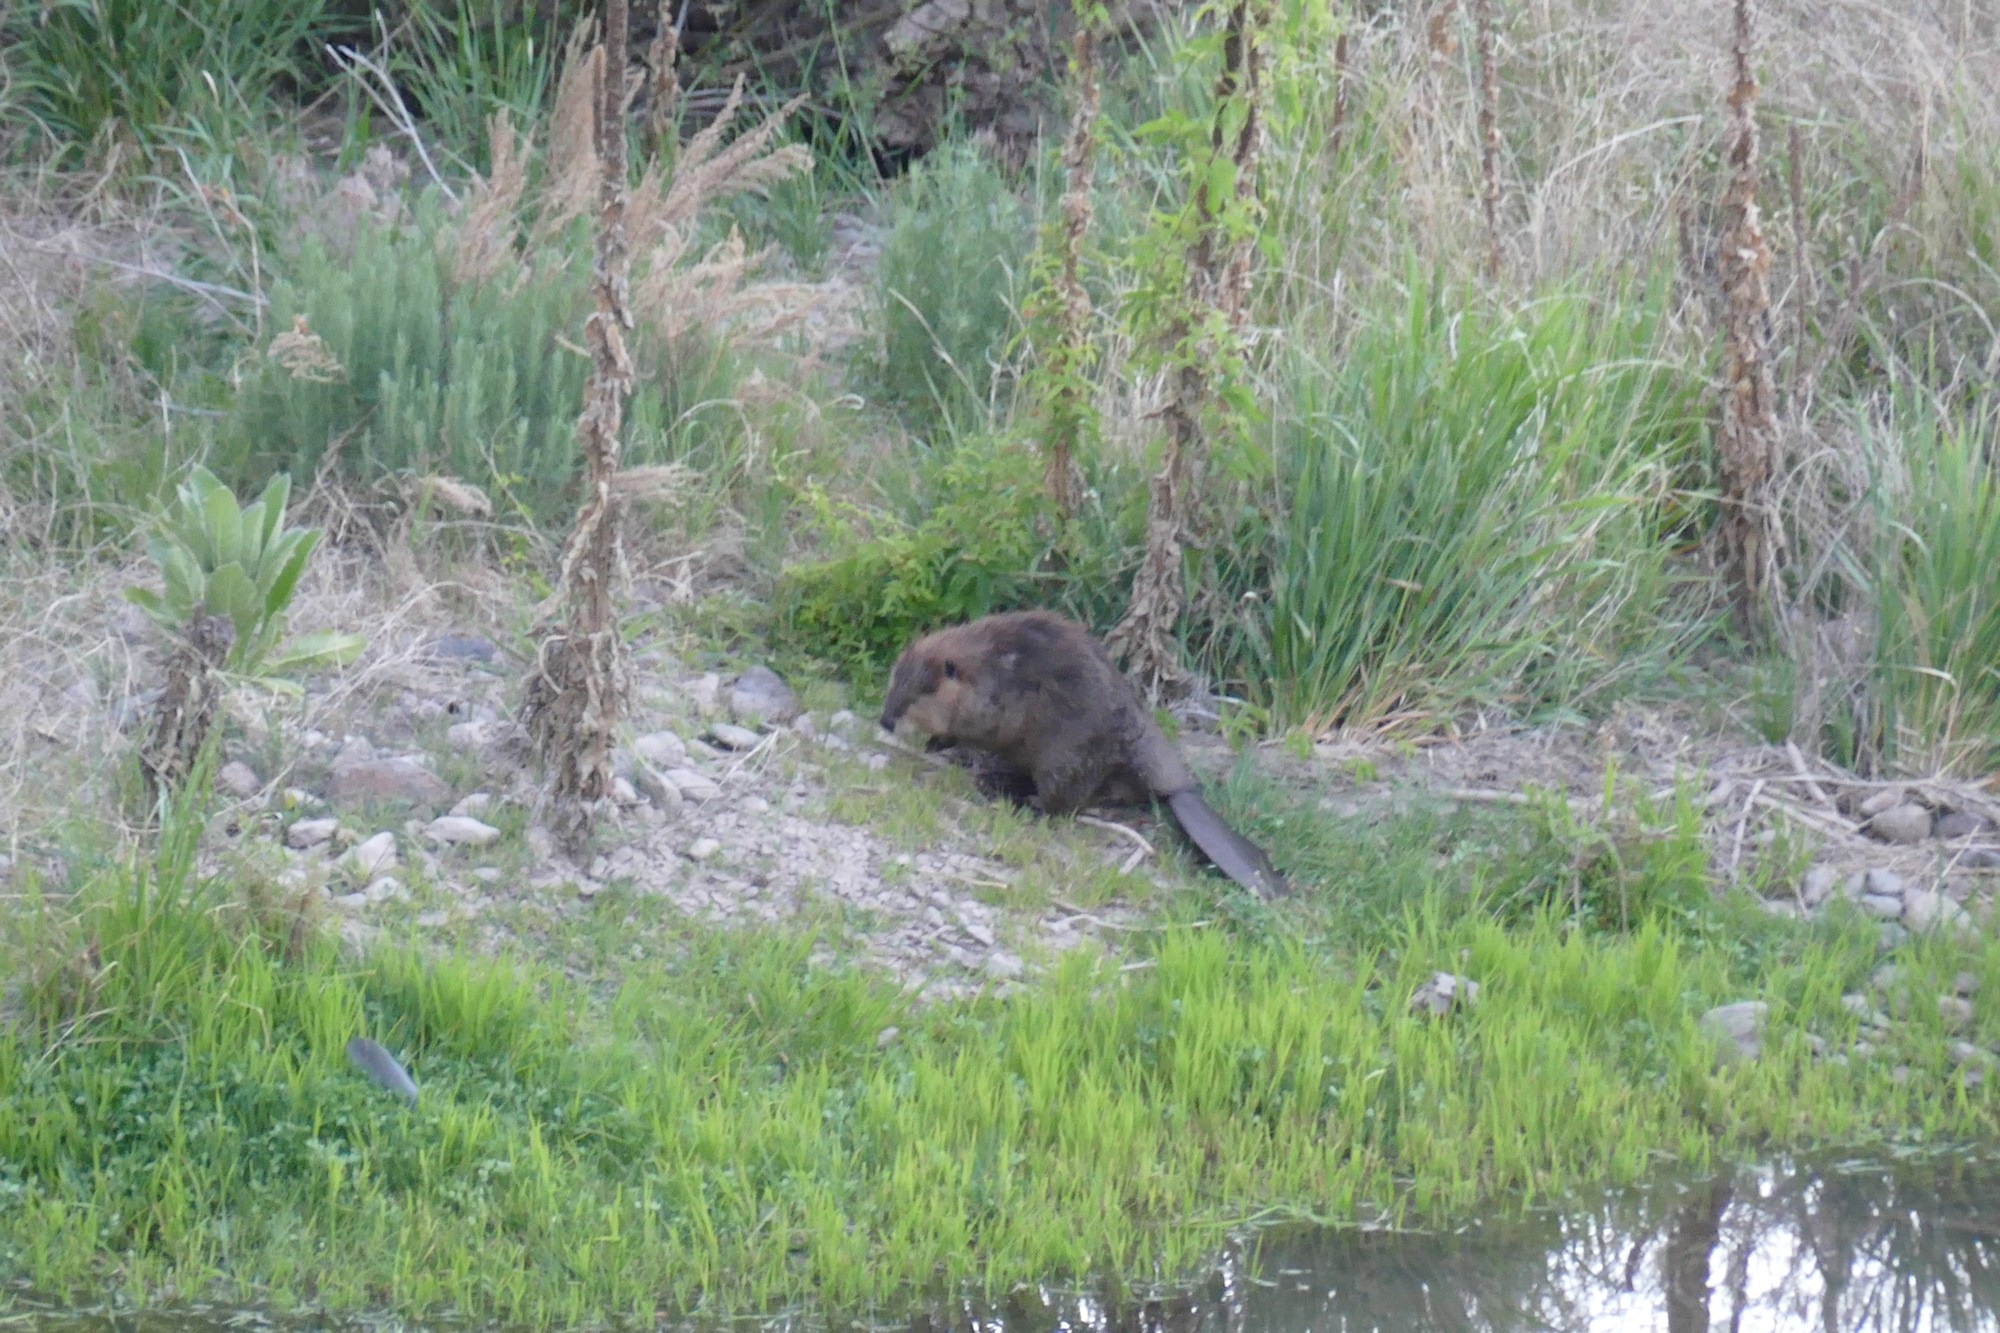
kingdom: Animalia
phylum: Chordata
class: Mammalia
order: Rodentia
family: Castoridae
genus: Castor
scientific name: Castor canadensis
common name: American beaver
